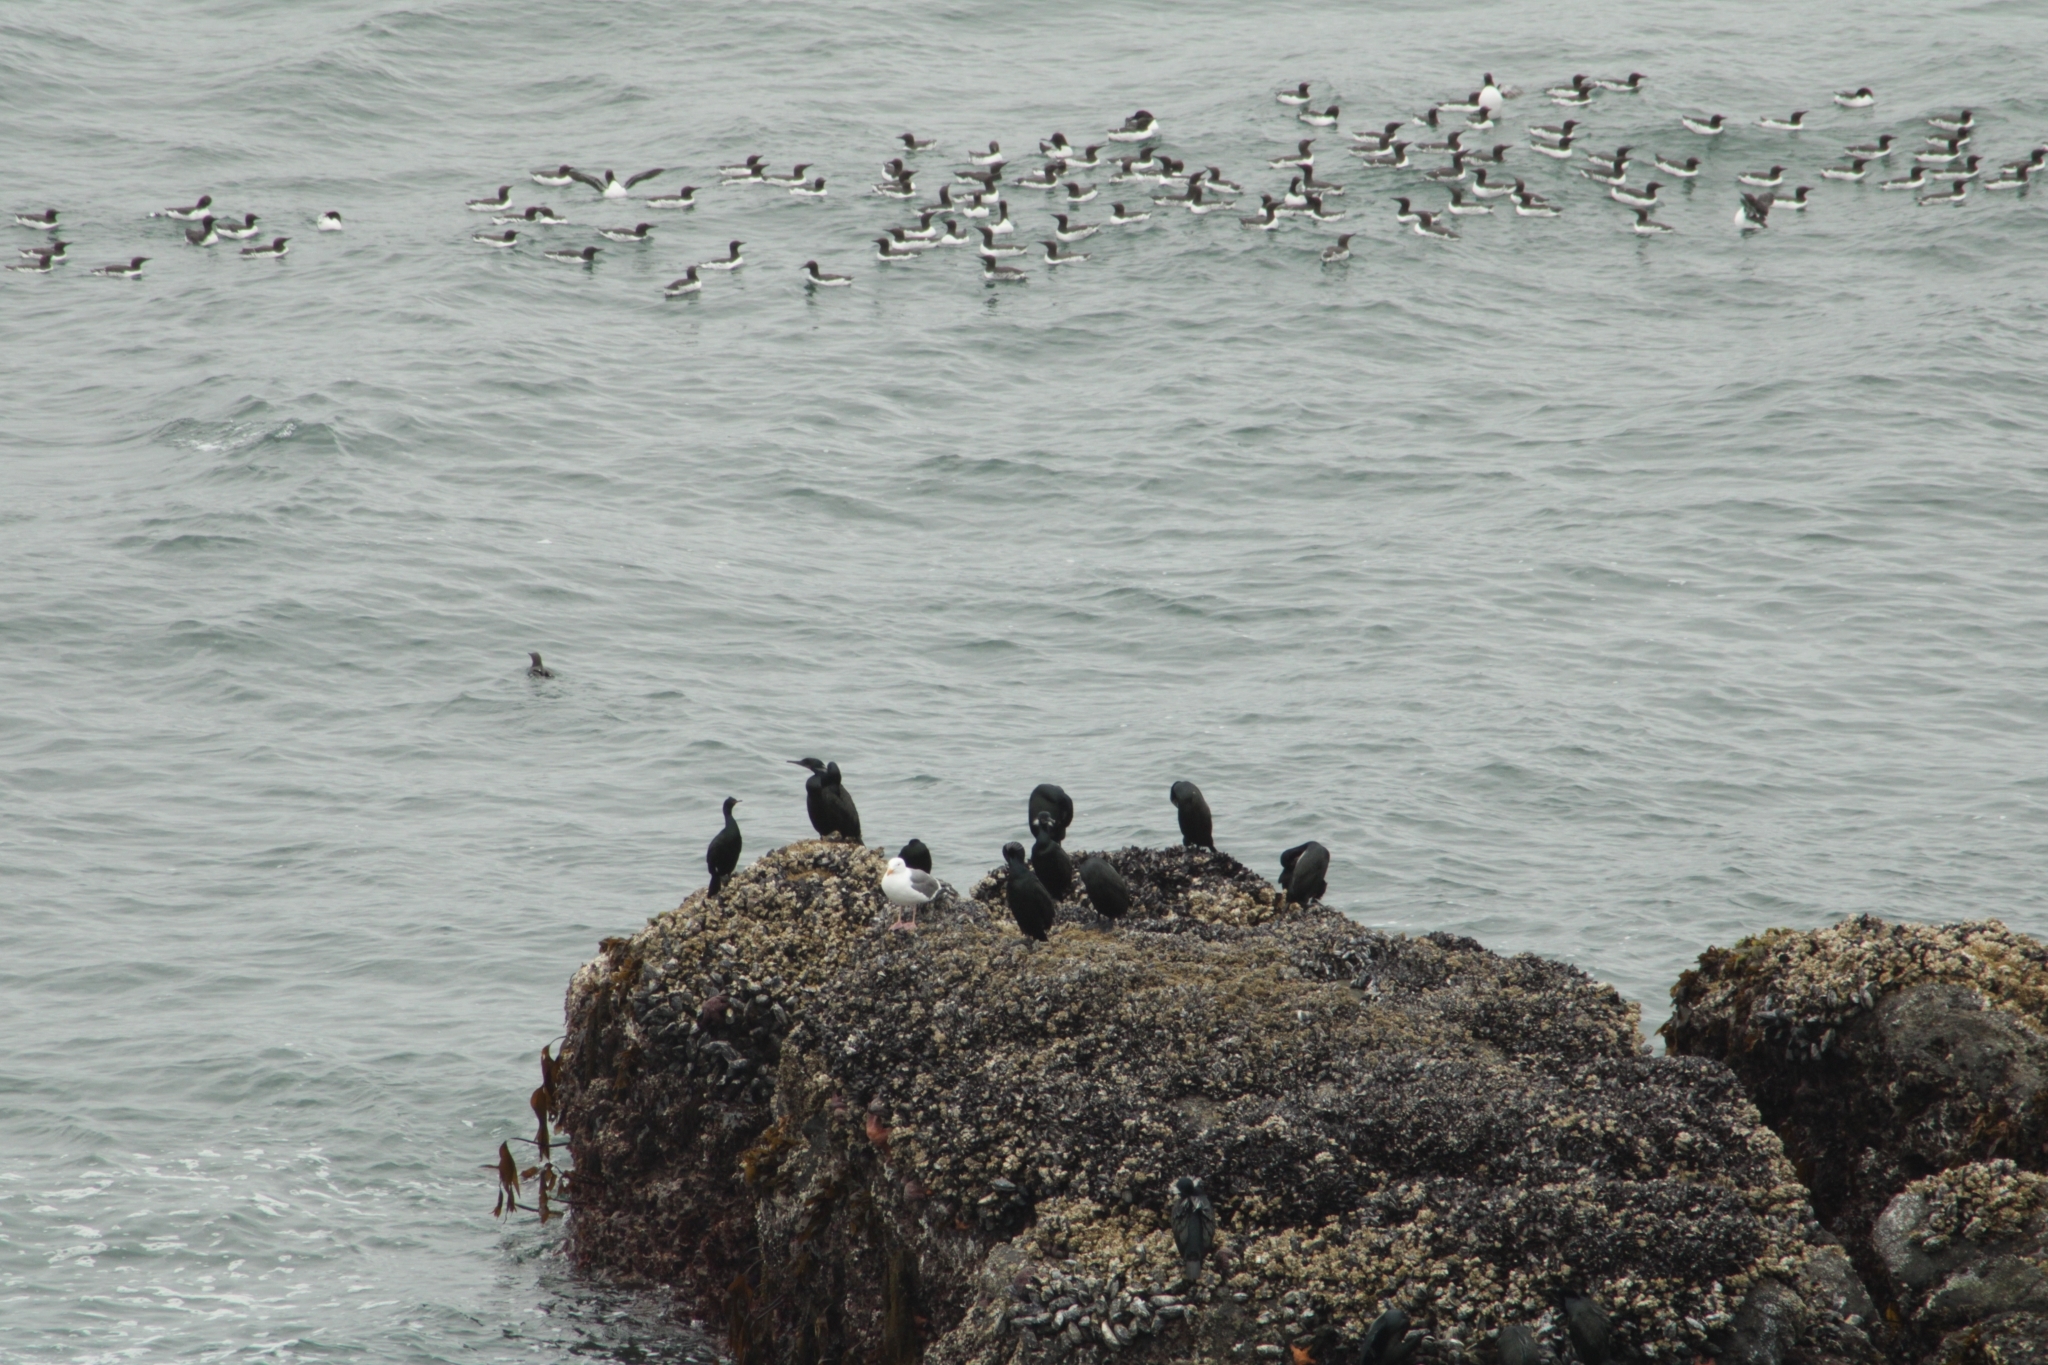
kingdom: Animalia
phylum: Chordata
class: Aves
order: Suliformes
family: Phalacrocoracidae
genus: Urile
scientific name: Urile penicillatus
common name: Brandt's cormorant
